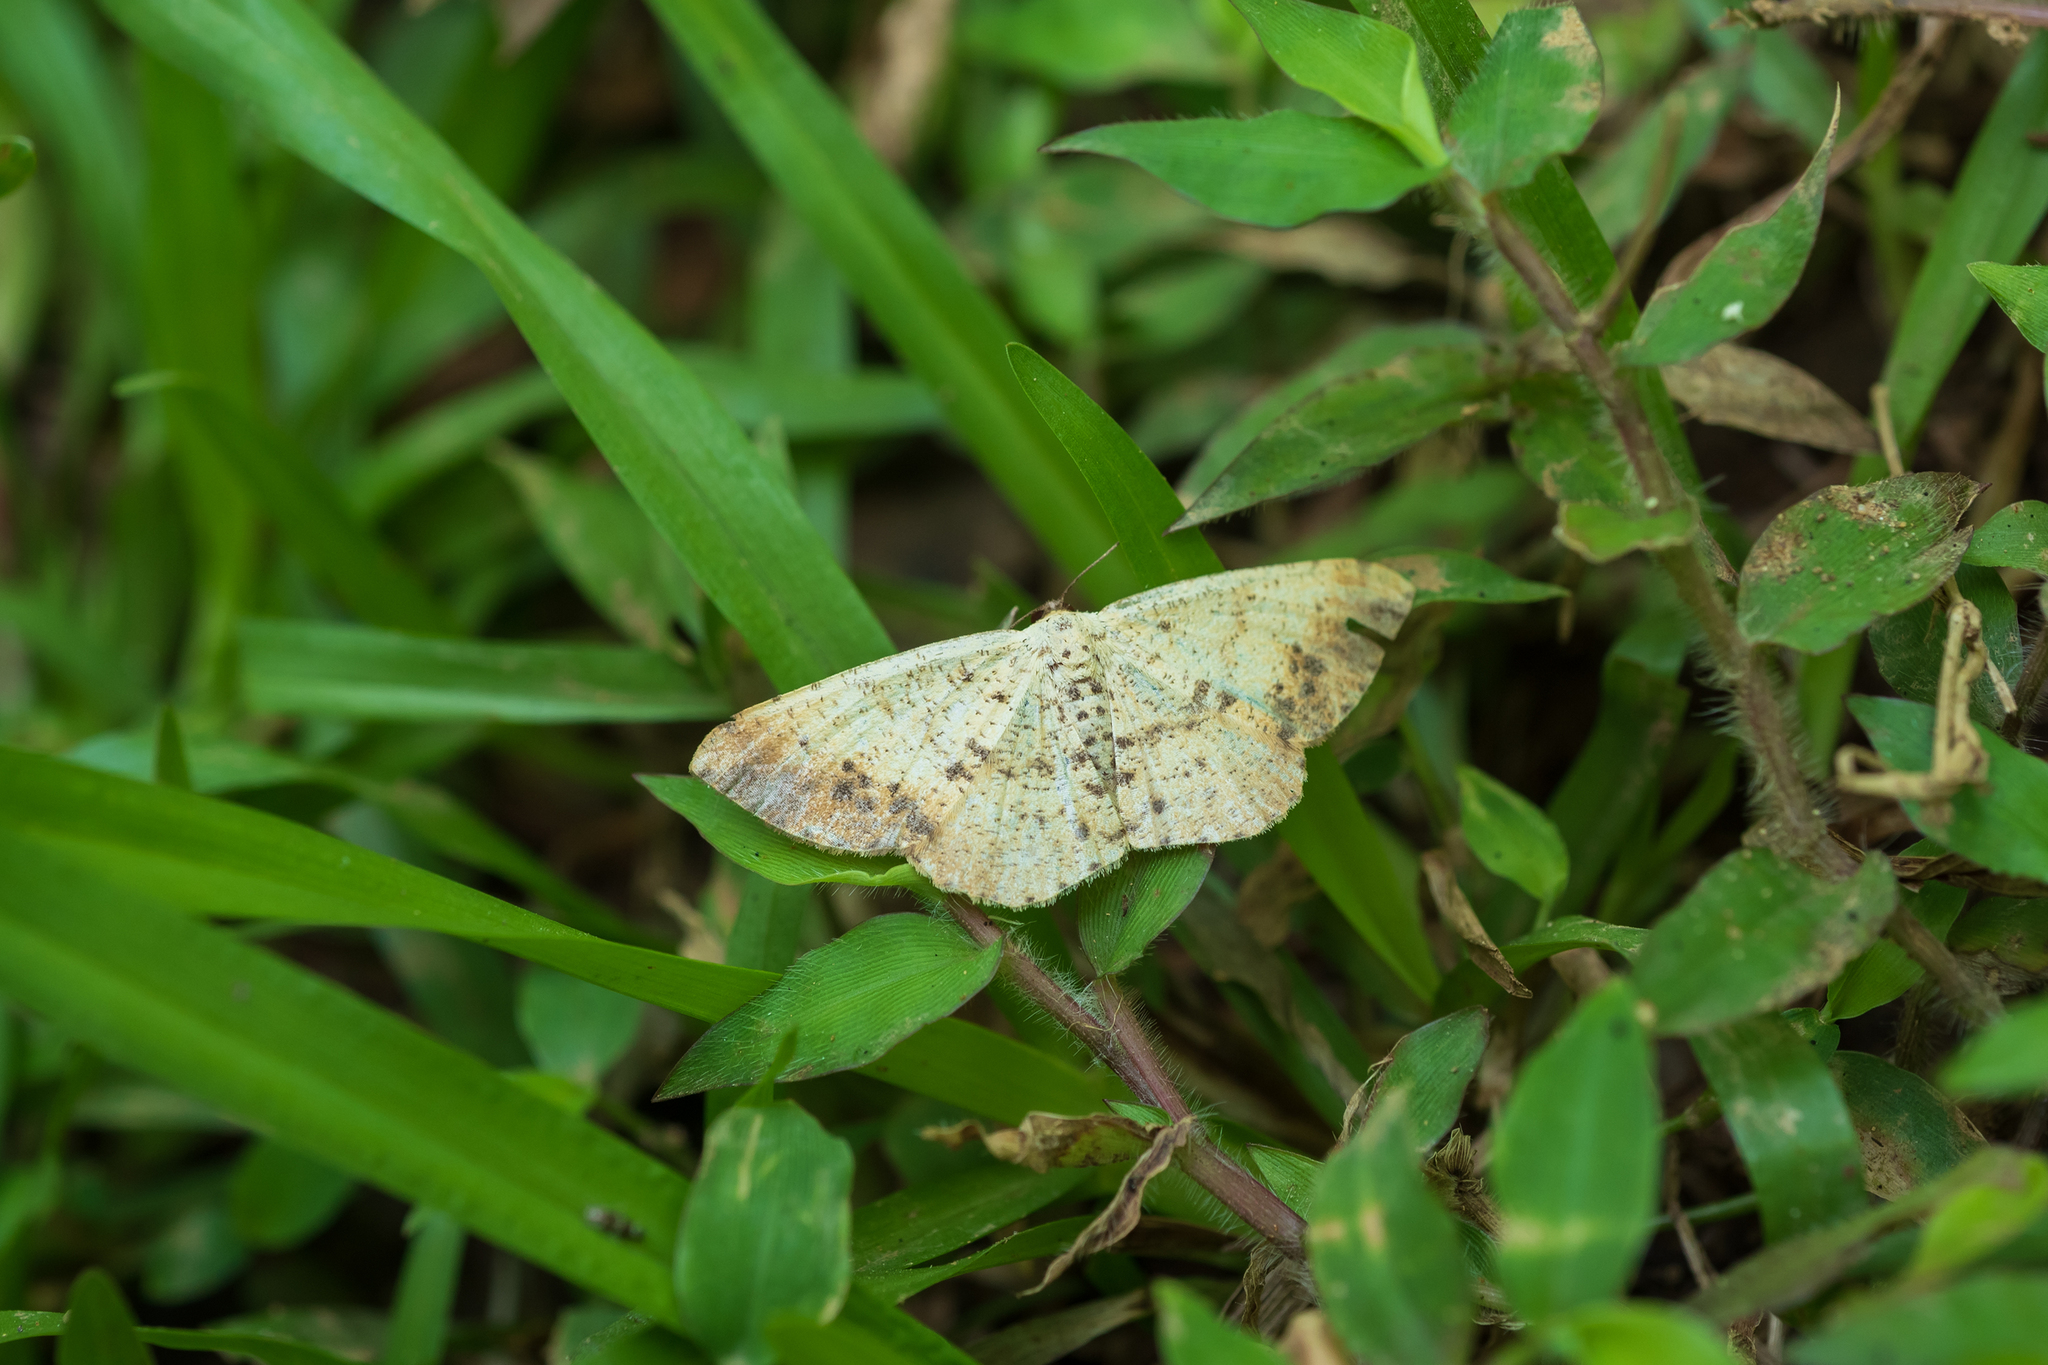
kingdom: Animalia
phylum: Arthropoda
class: Insecta
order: Lepidoptera
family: Geometridae
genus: Alcis
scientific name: Alcis ochrolaria
